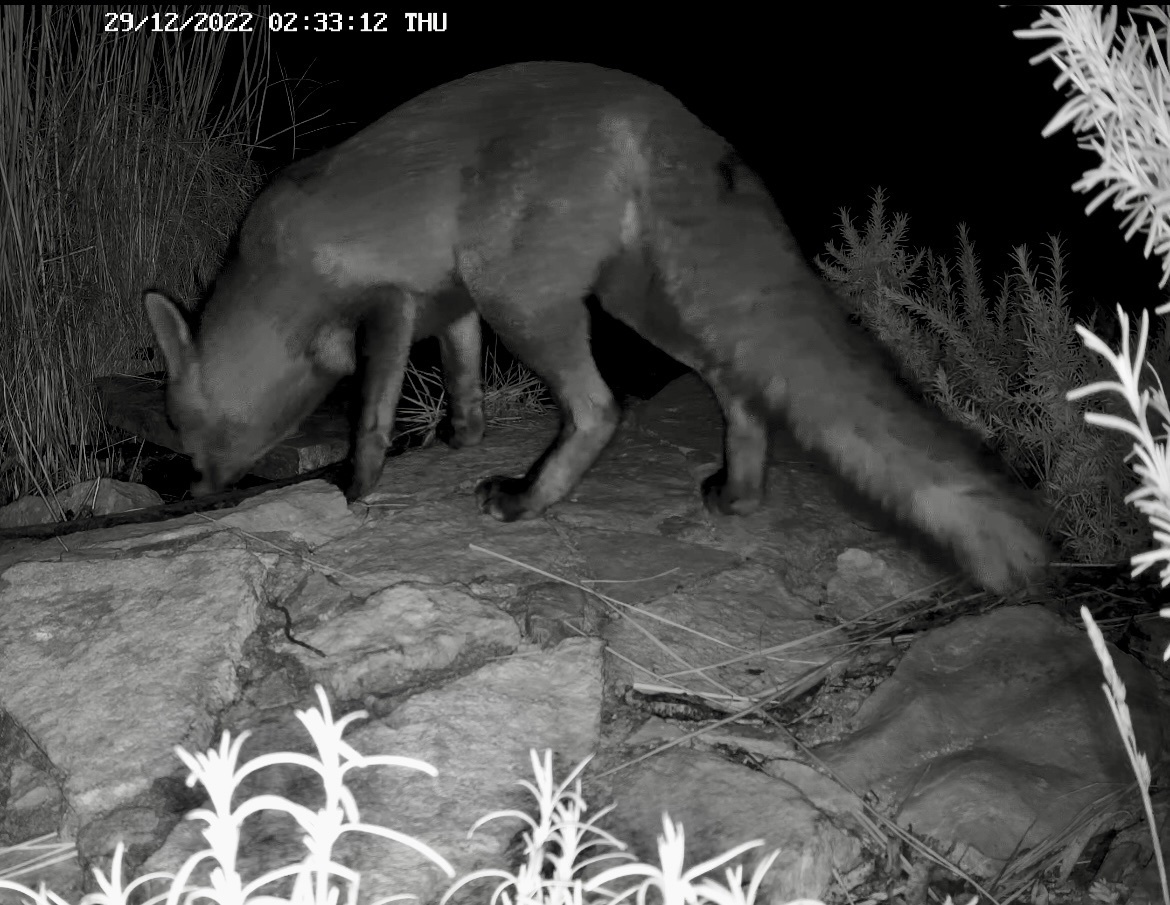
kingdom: Animalia
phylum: Chordata
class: Mammalia
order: Carnivora
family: Canidae
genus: Vulpes
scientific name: Vulpes vulpes
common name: Red fox
